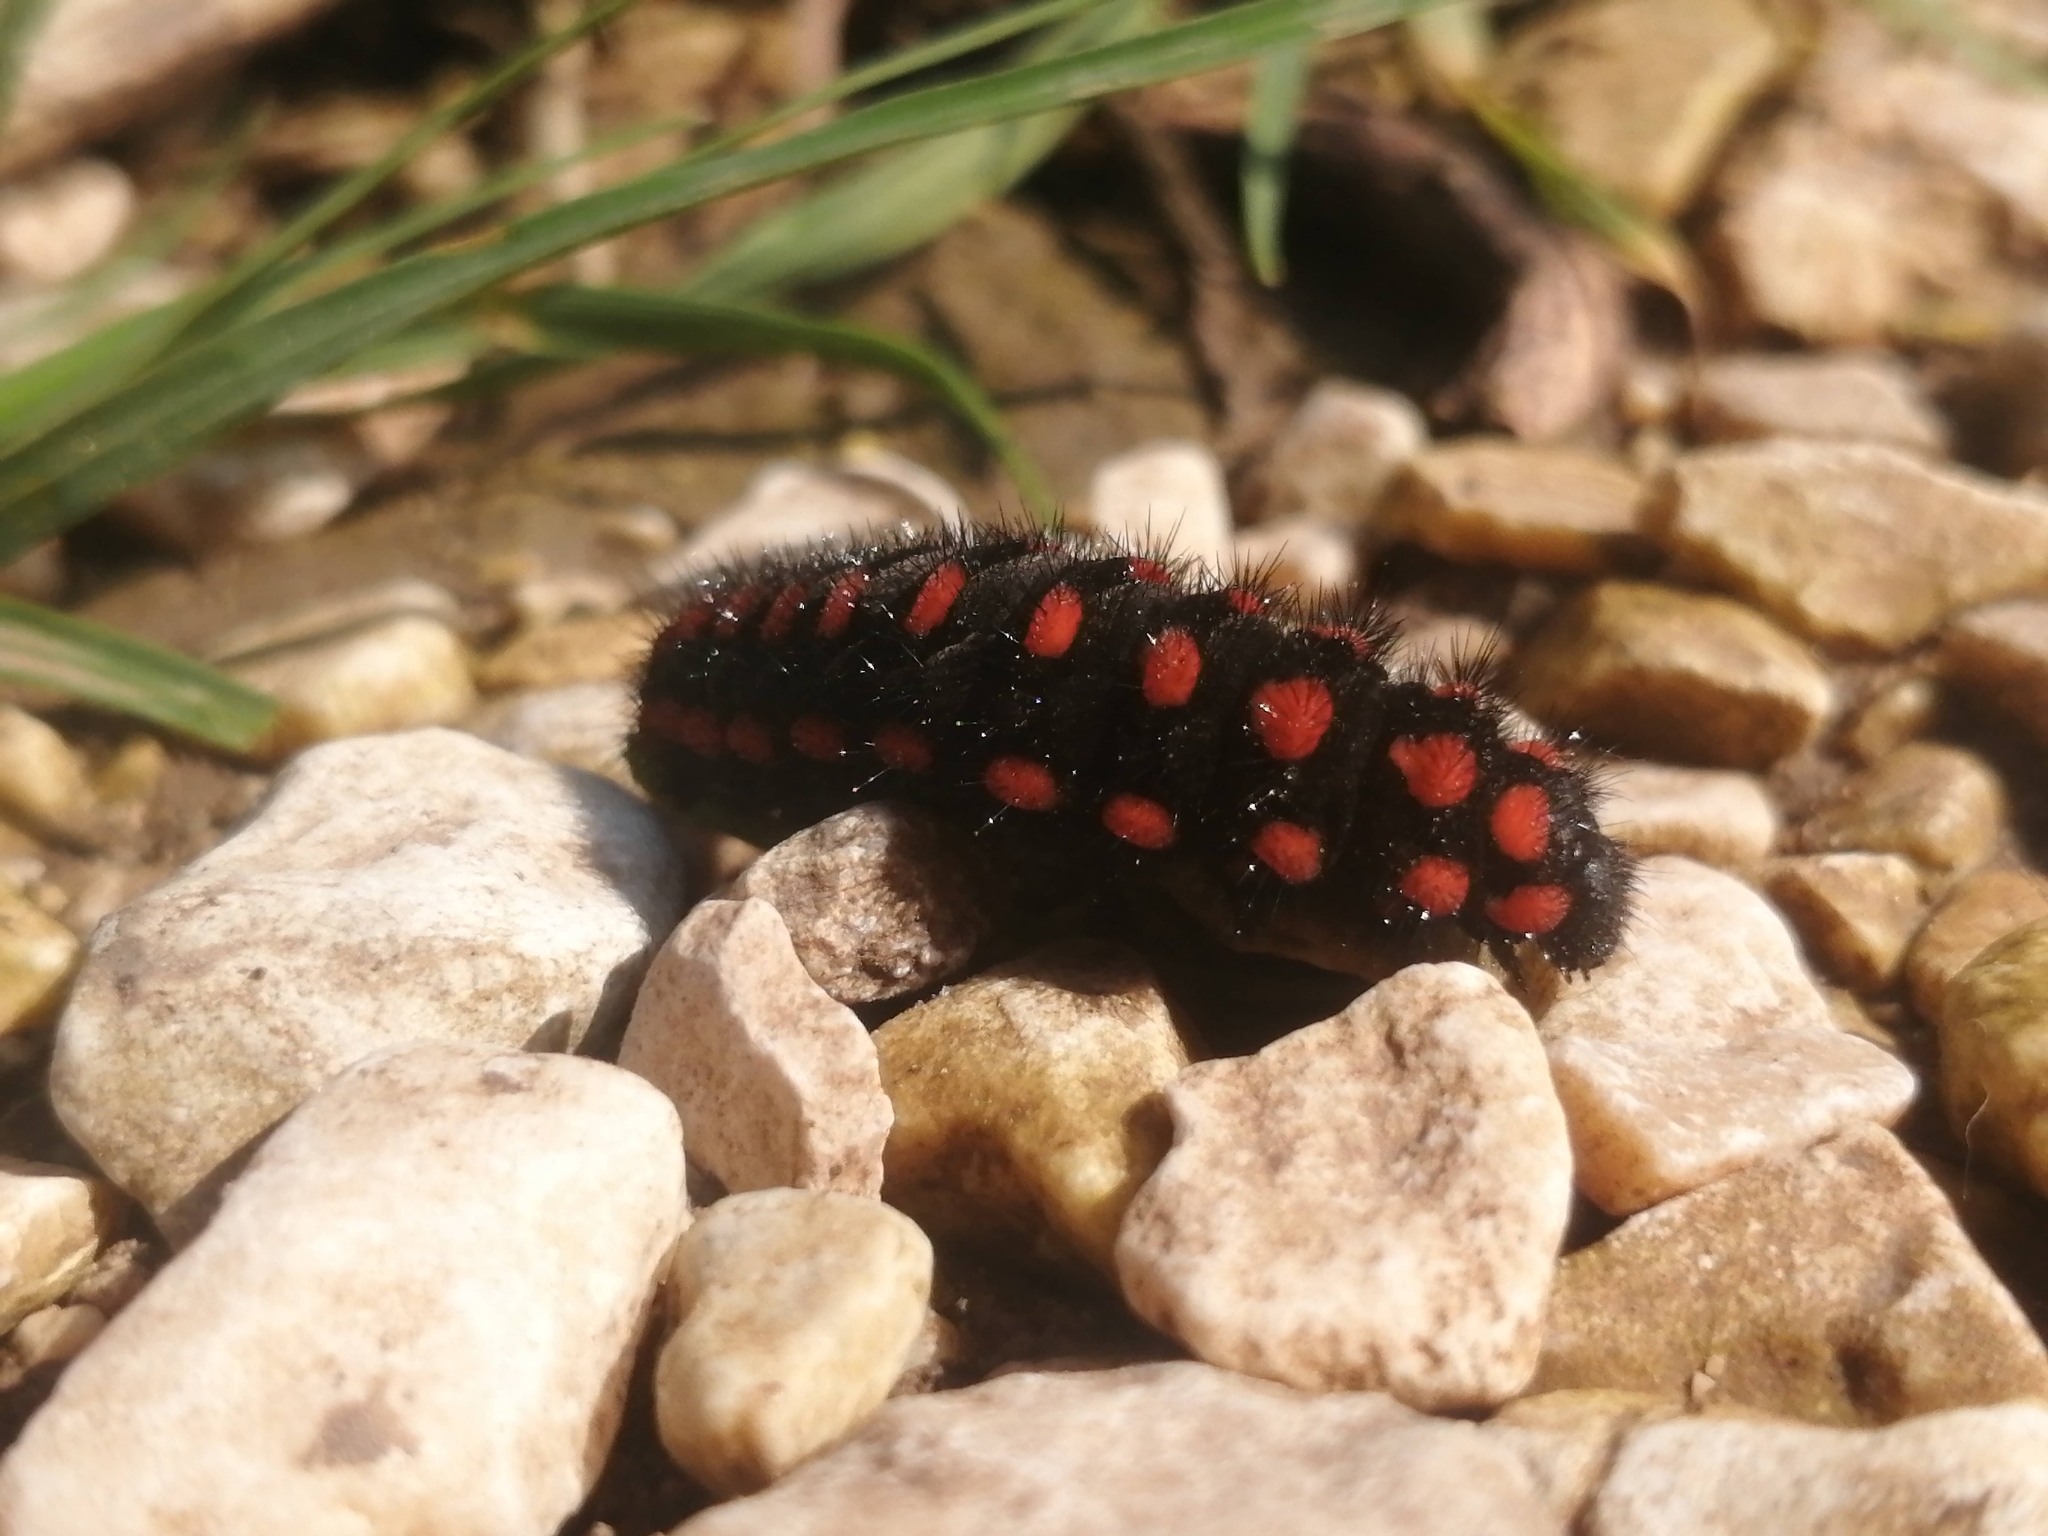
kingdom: Animalia
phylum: Arthropoda
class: Insecta
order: Lepidoptera
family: Papilionidae
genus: Archon
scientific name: Archon apollinus
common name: False apollo
